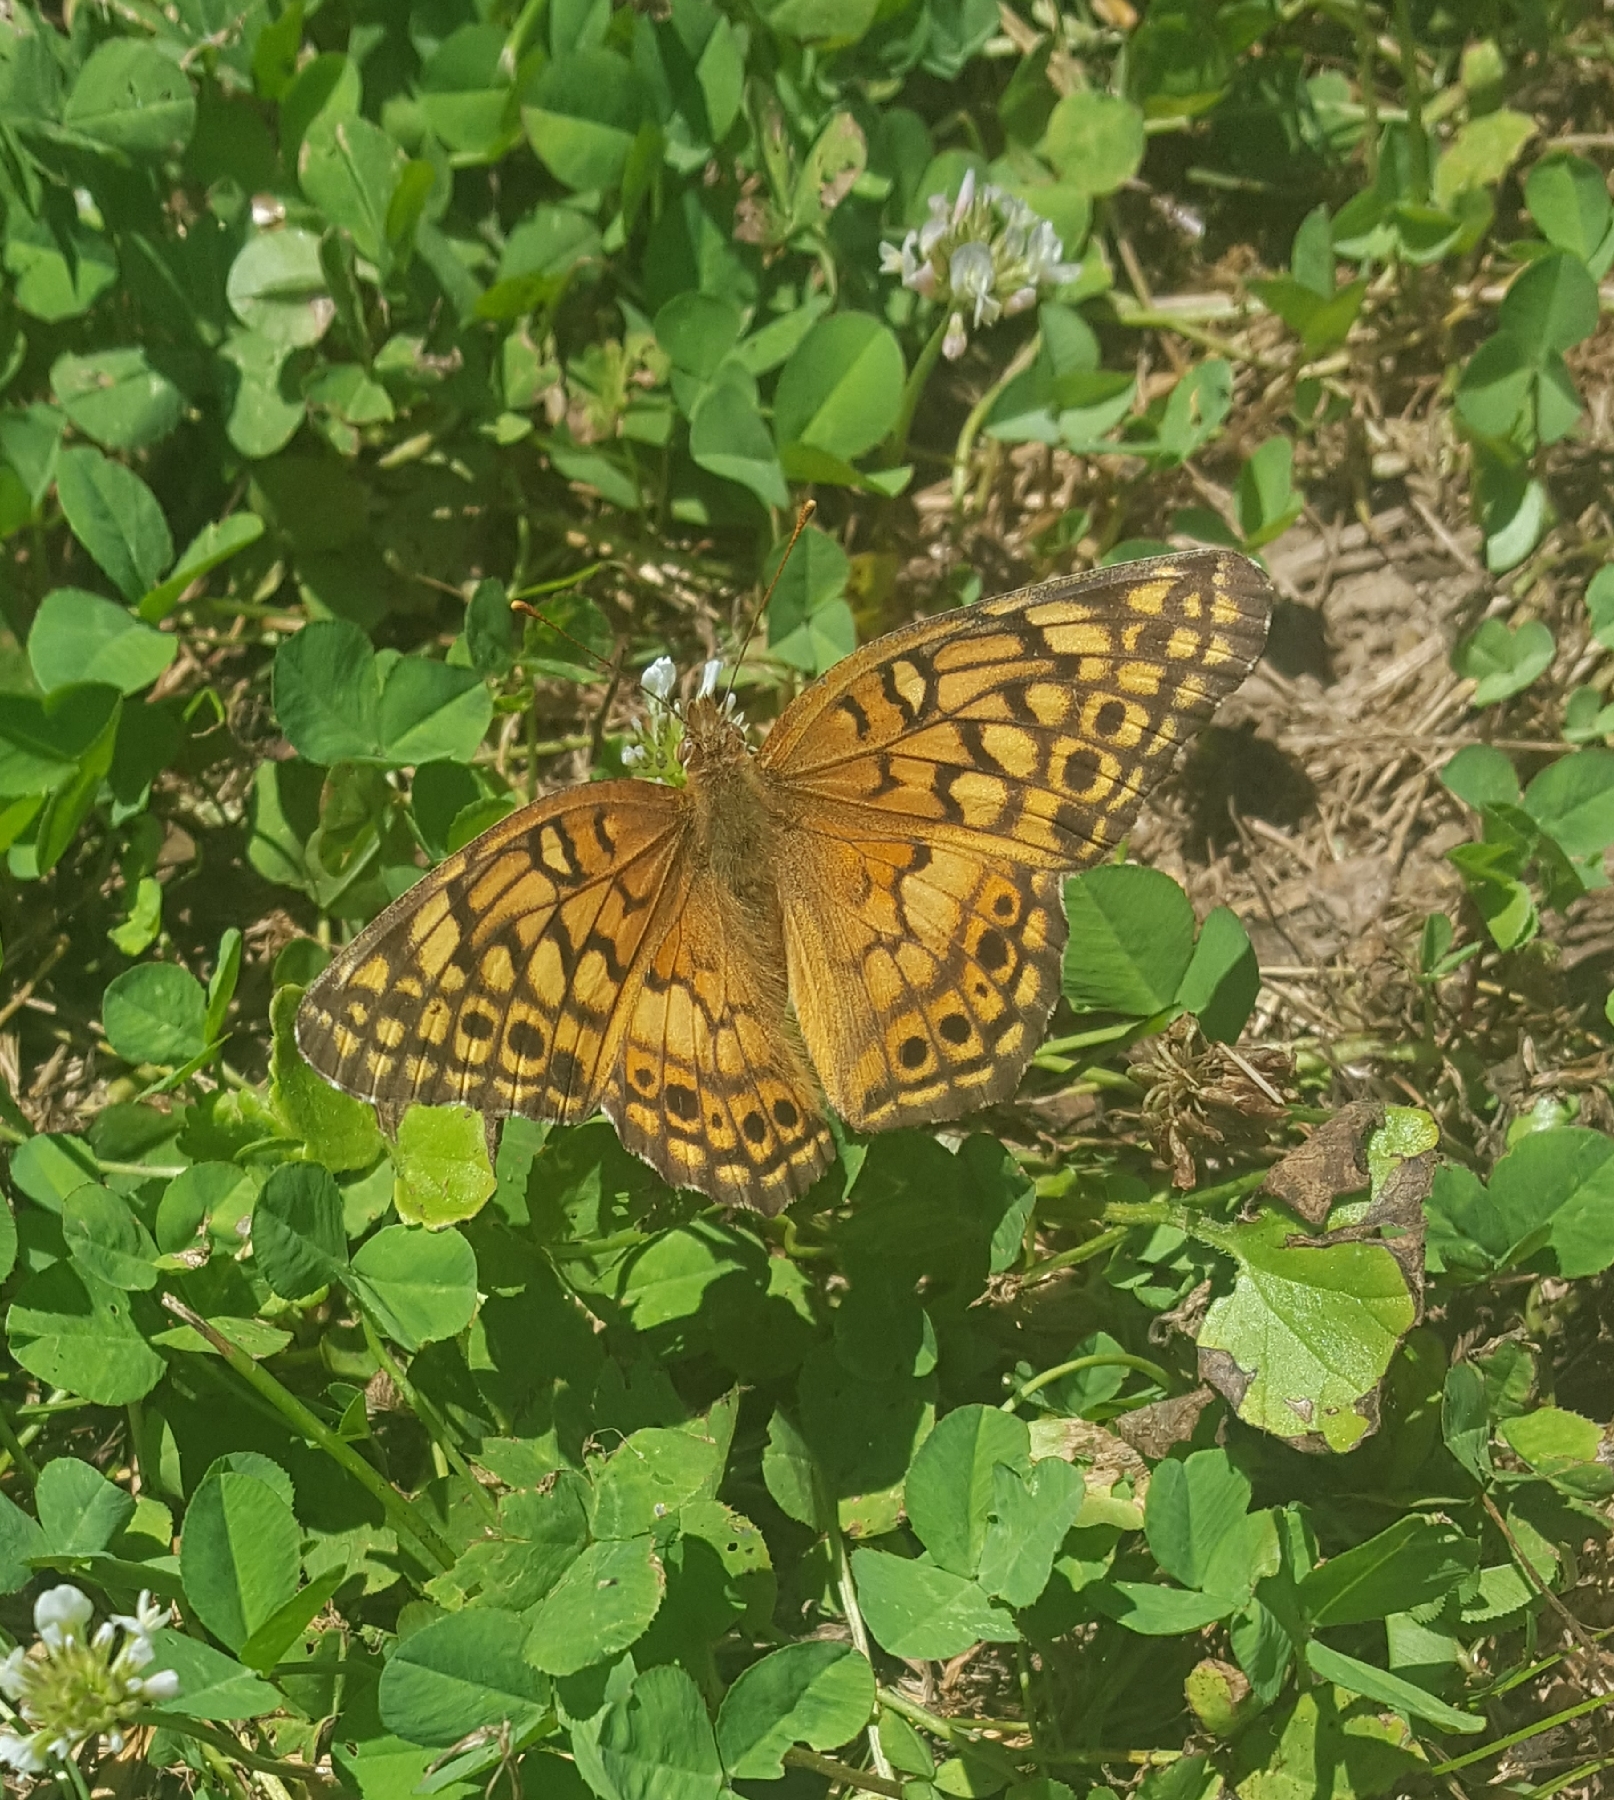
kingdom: Animalia
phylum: Arthropoda
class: Insecta
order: Lepidoptera
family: Nymphalidae
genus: Euptoieta
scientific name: Euptoieta claudia
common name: Variegated fritillary
